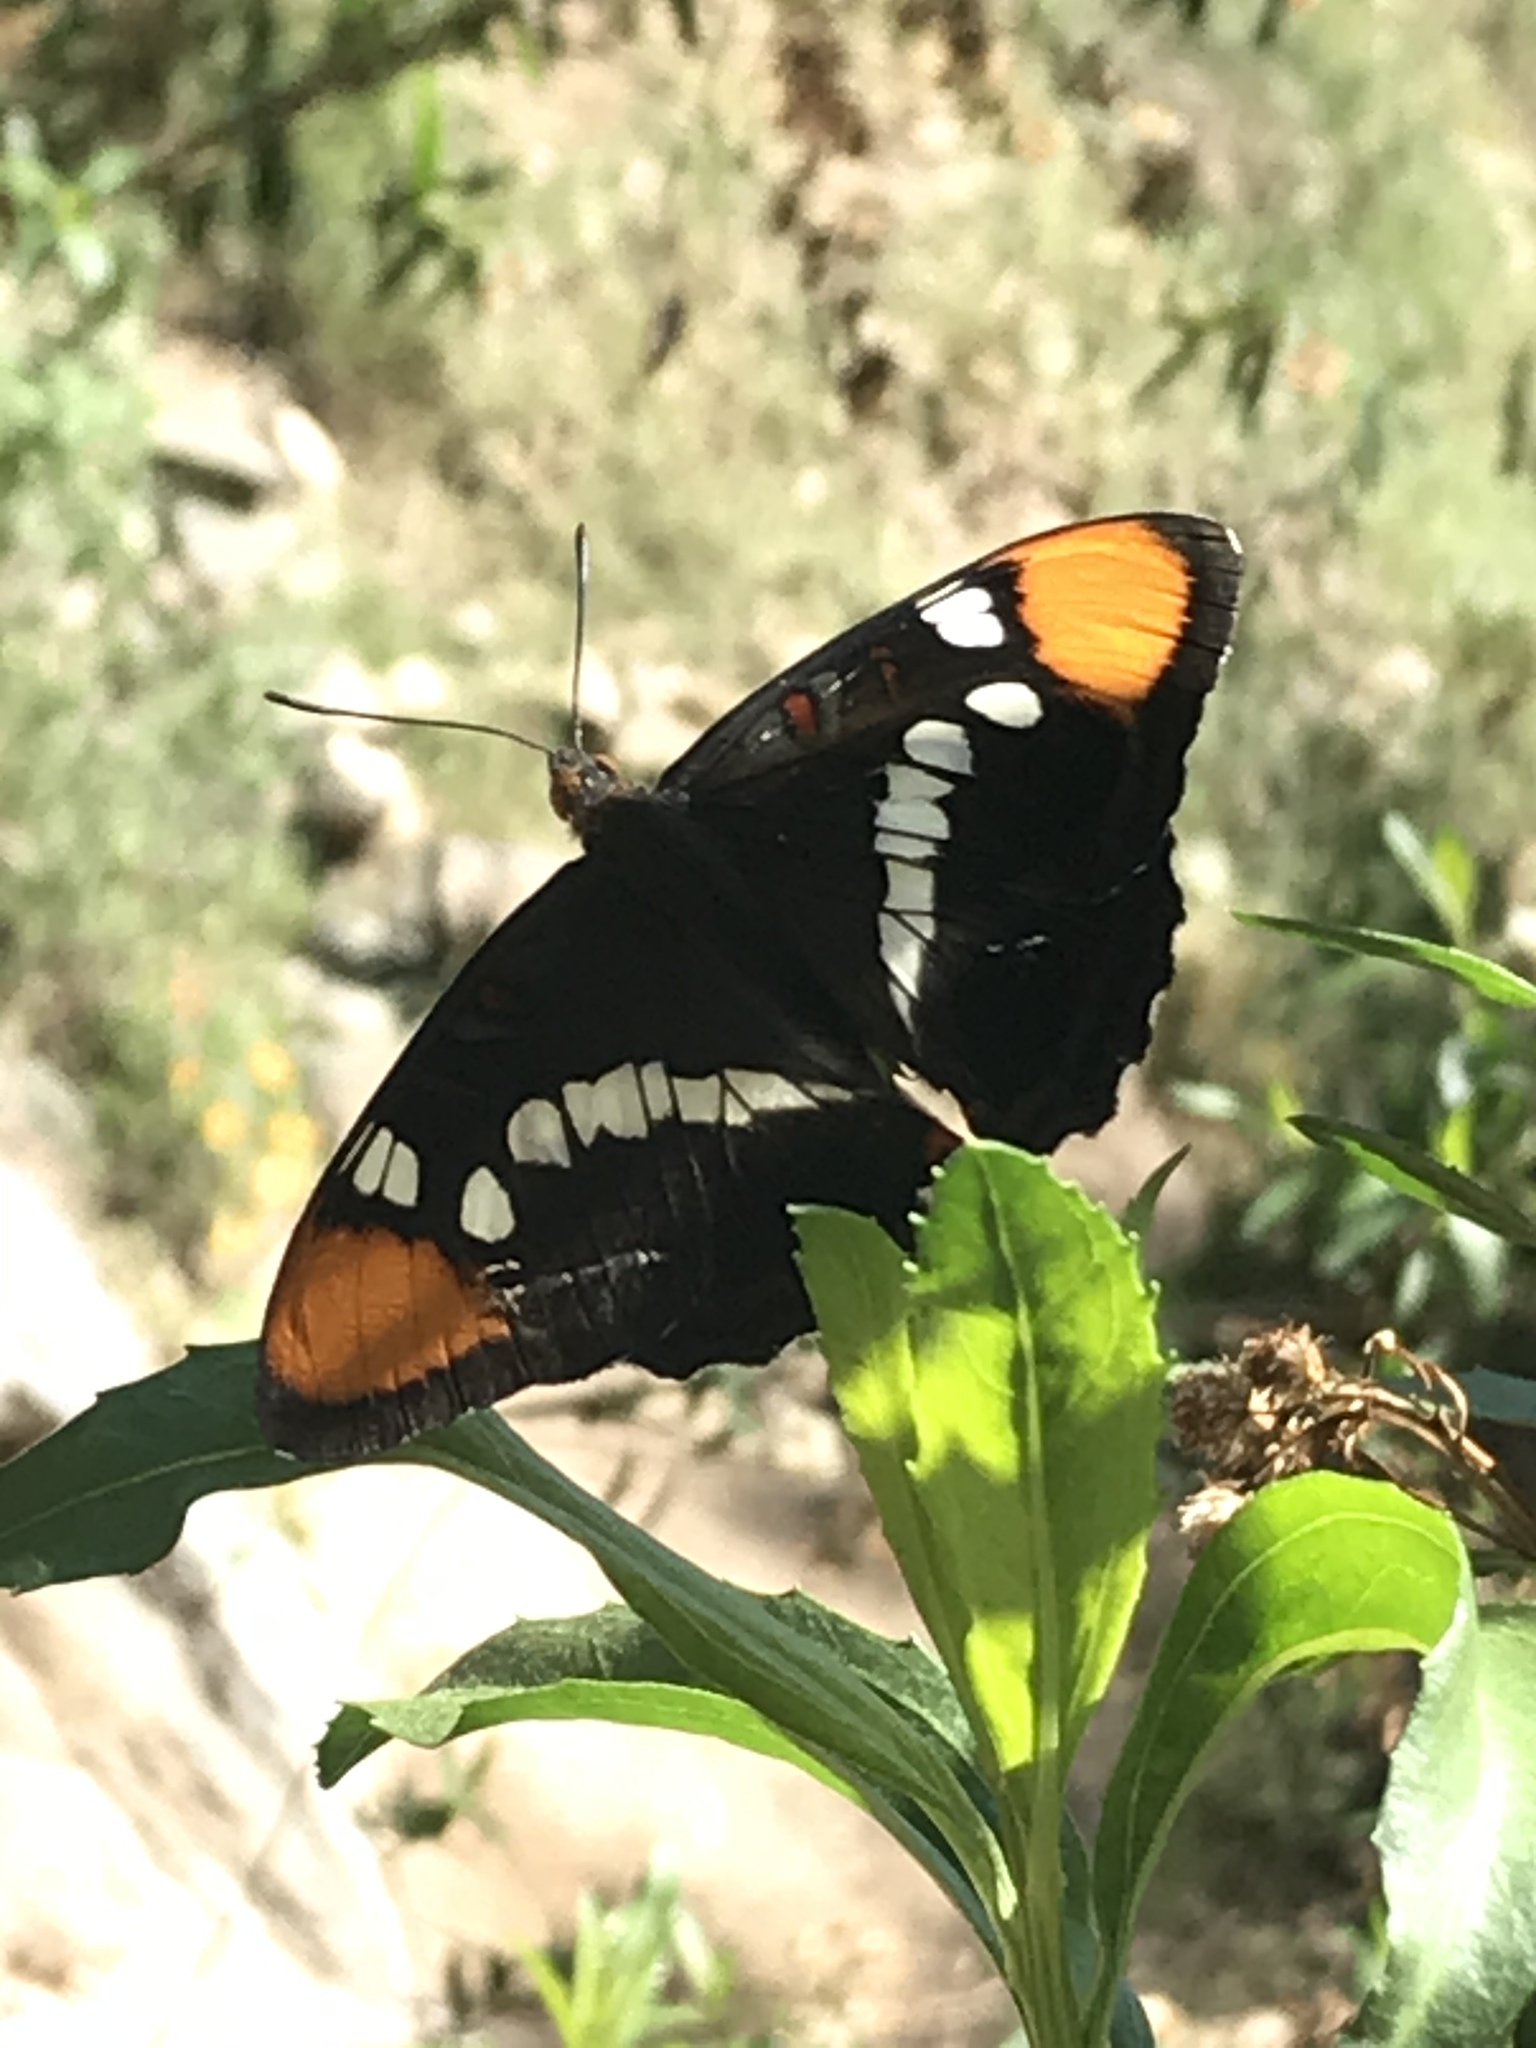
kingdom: Animalia
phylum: Arthropoda
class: Insecta
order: Lepidoptera
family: Nymphalidae
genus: Limenitis
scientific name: Limenitis bredowii
